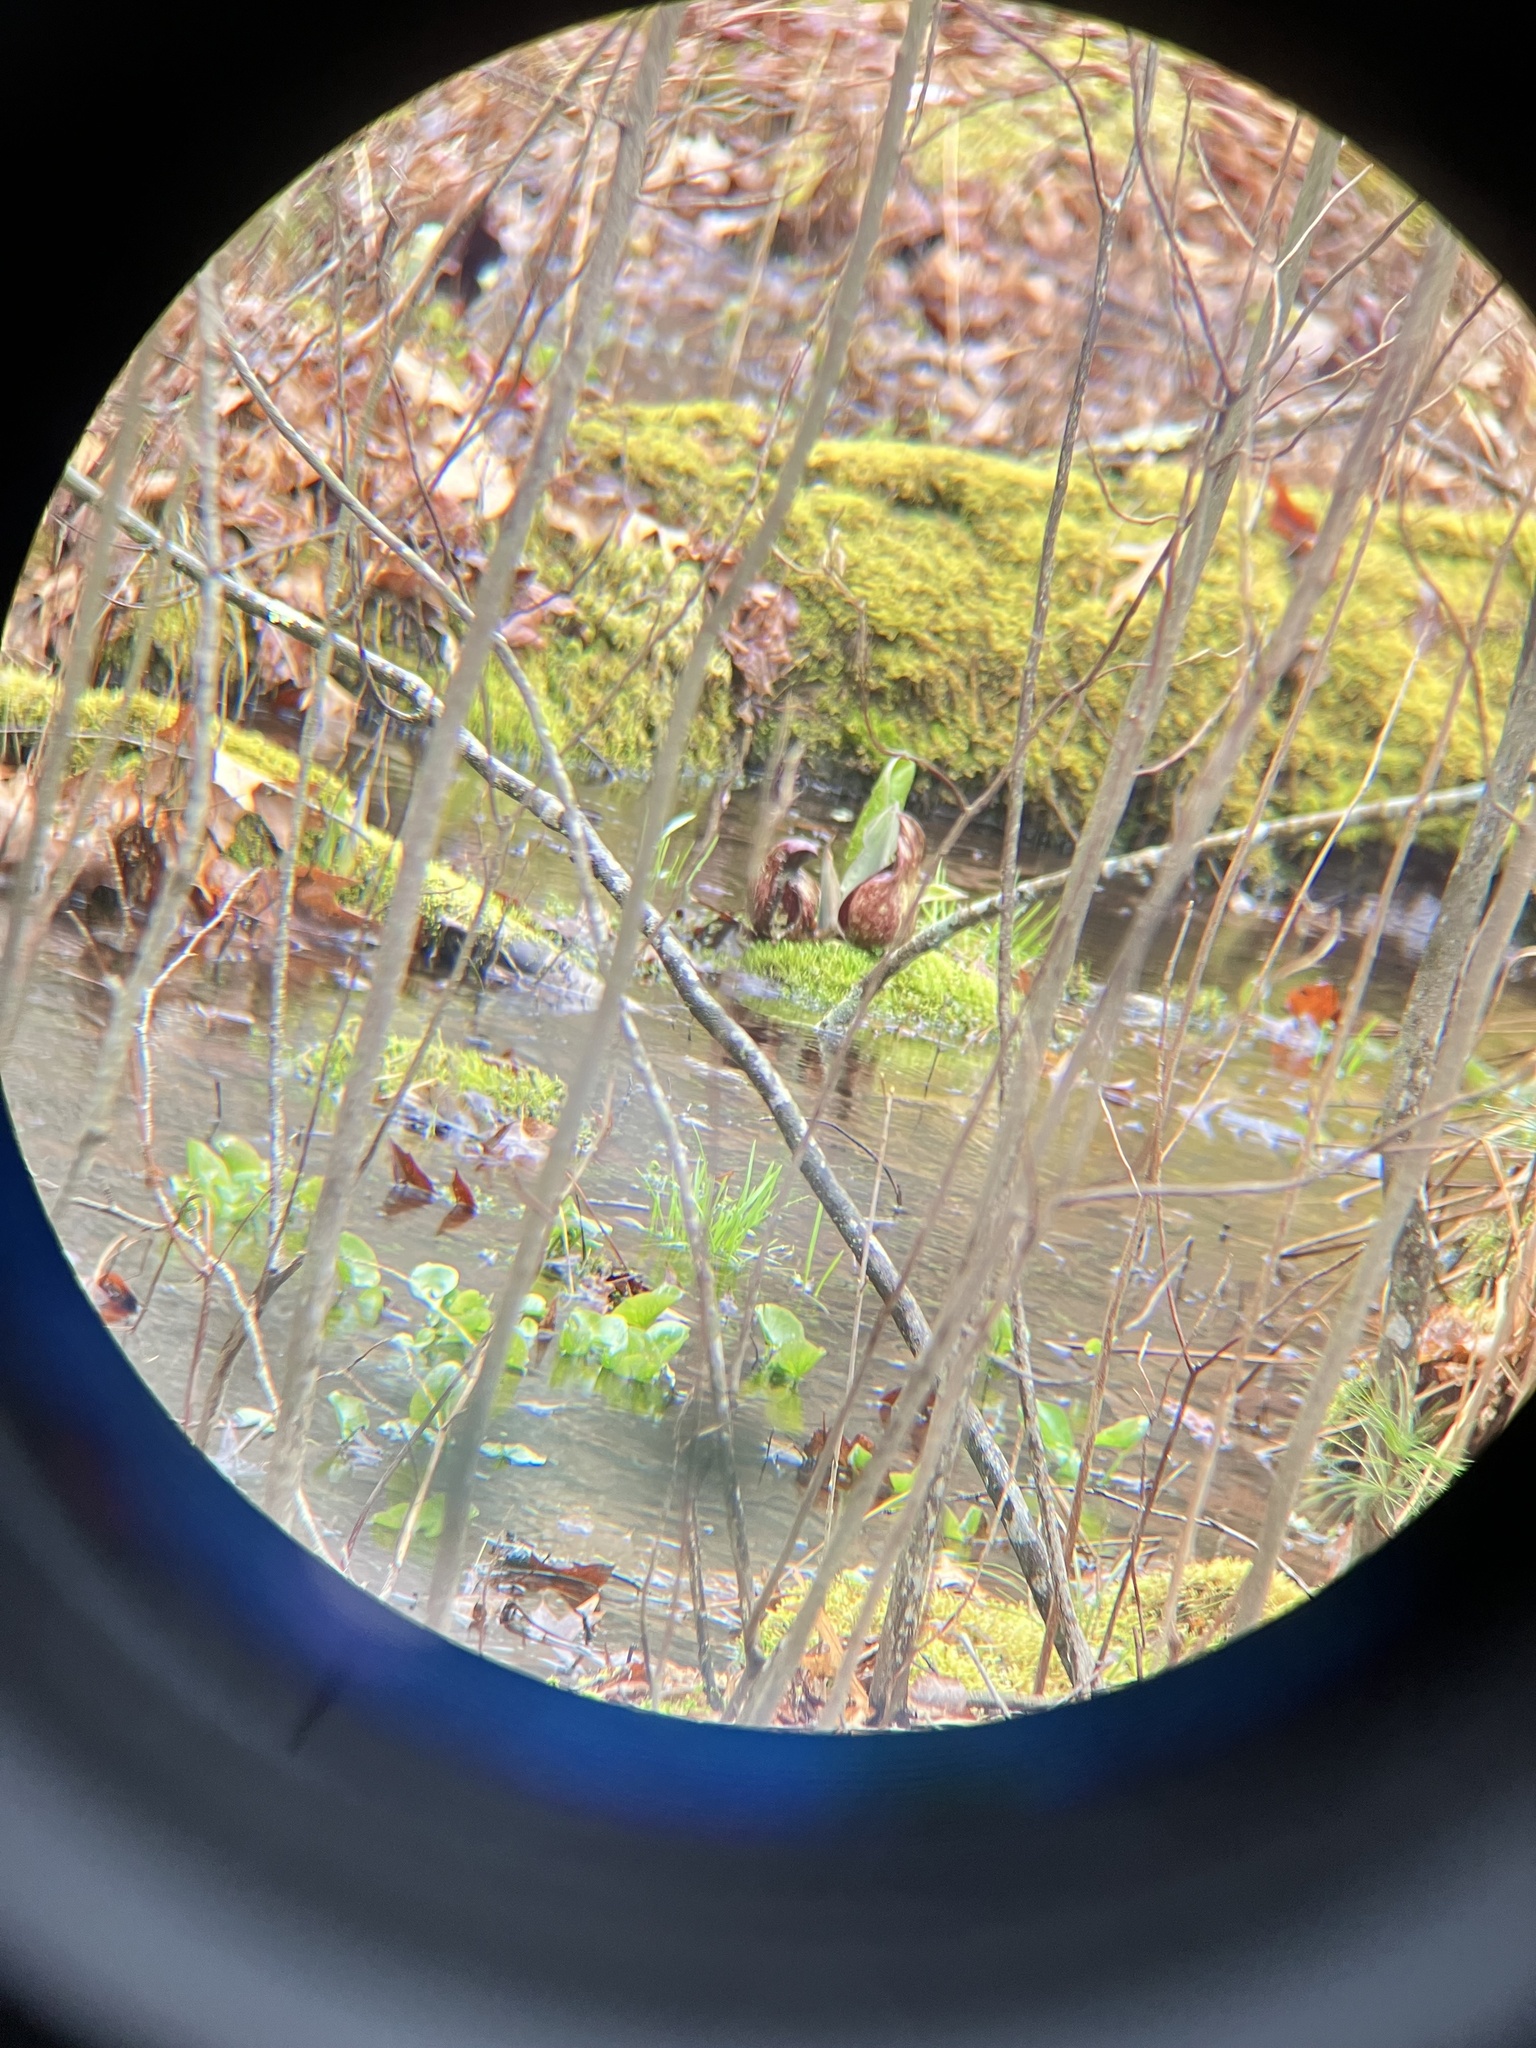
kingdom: Plantae
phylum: Tracheophyta
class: Liliopsida
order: Alismatales
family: Araceae
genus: Symplocarpus
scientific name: Symplocarpus foetidus
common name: Eastern skunk cabbage
